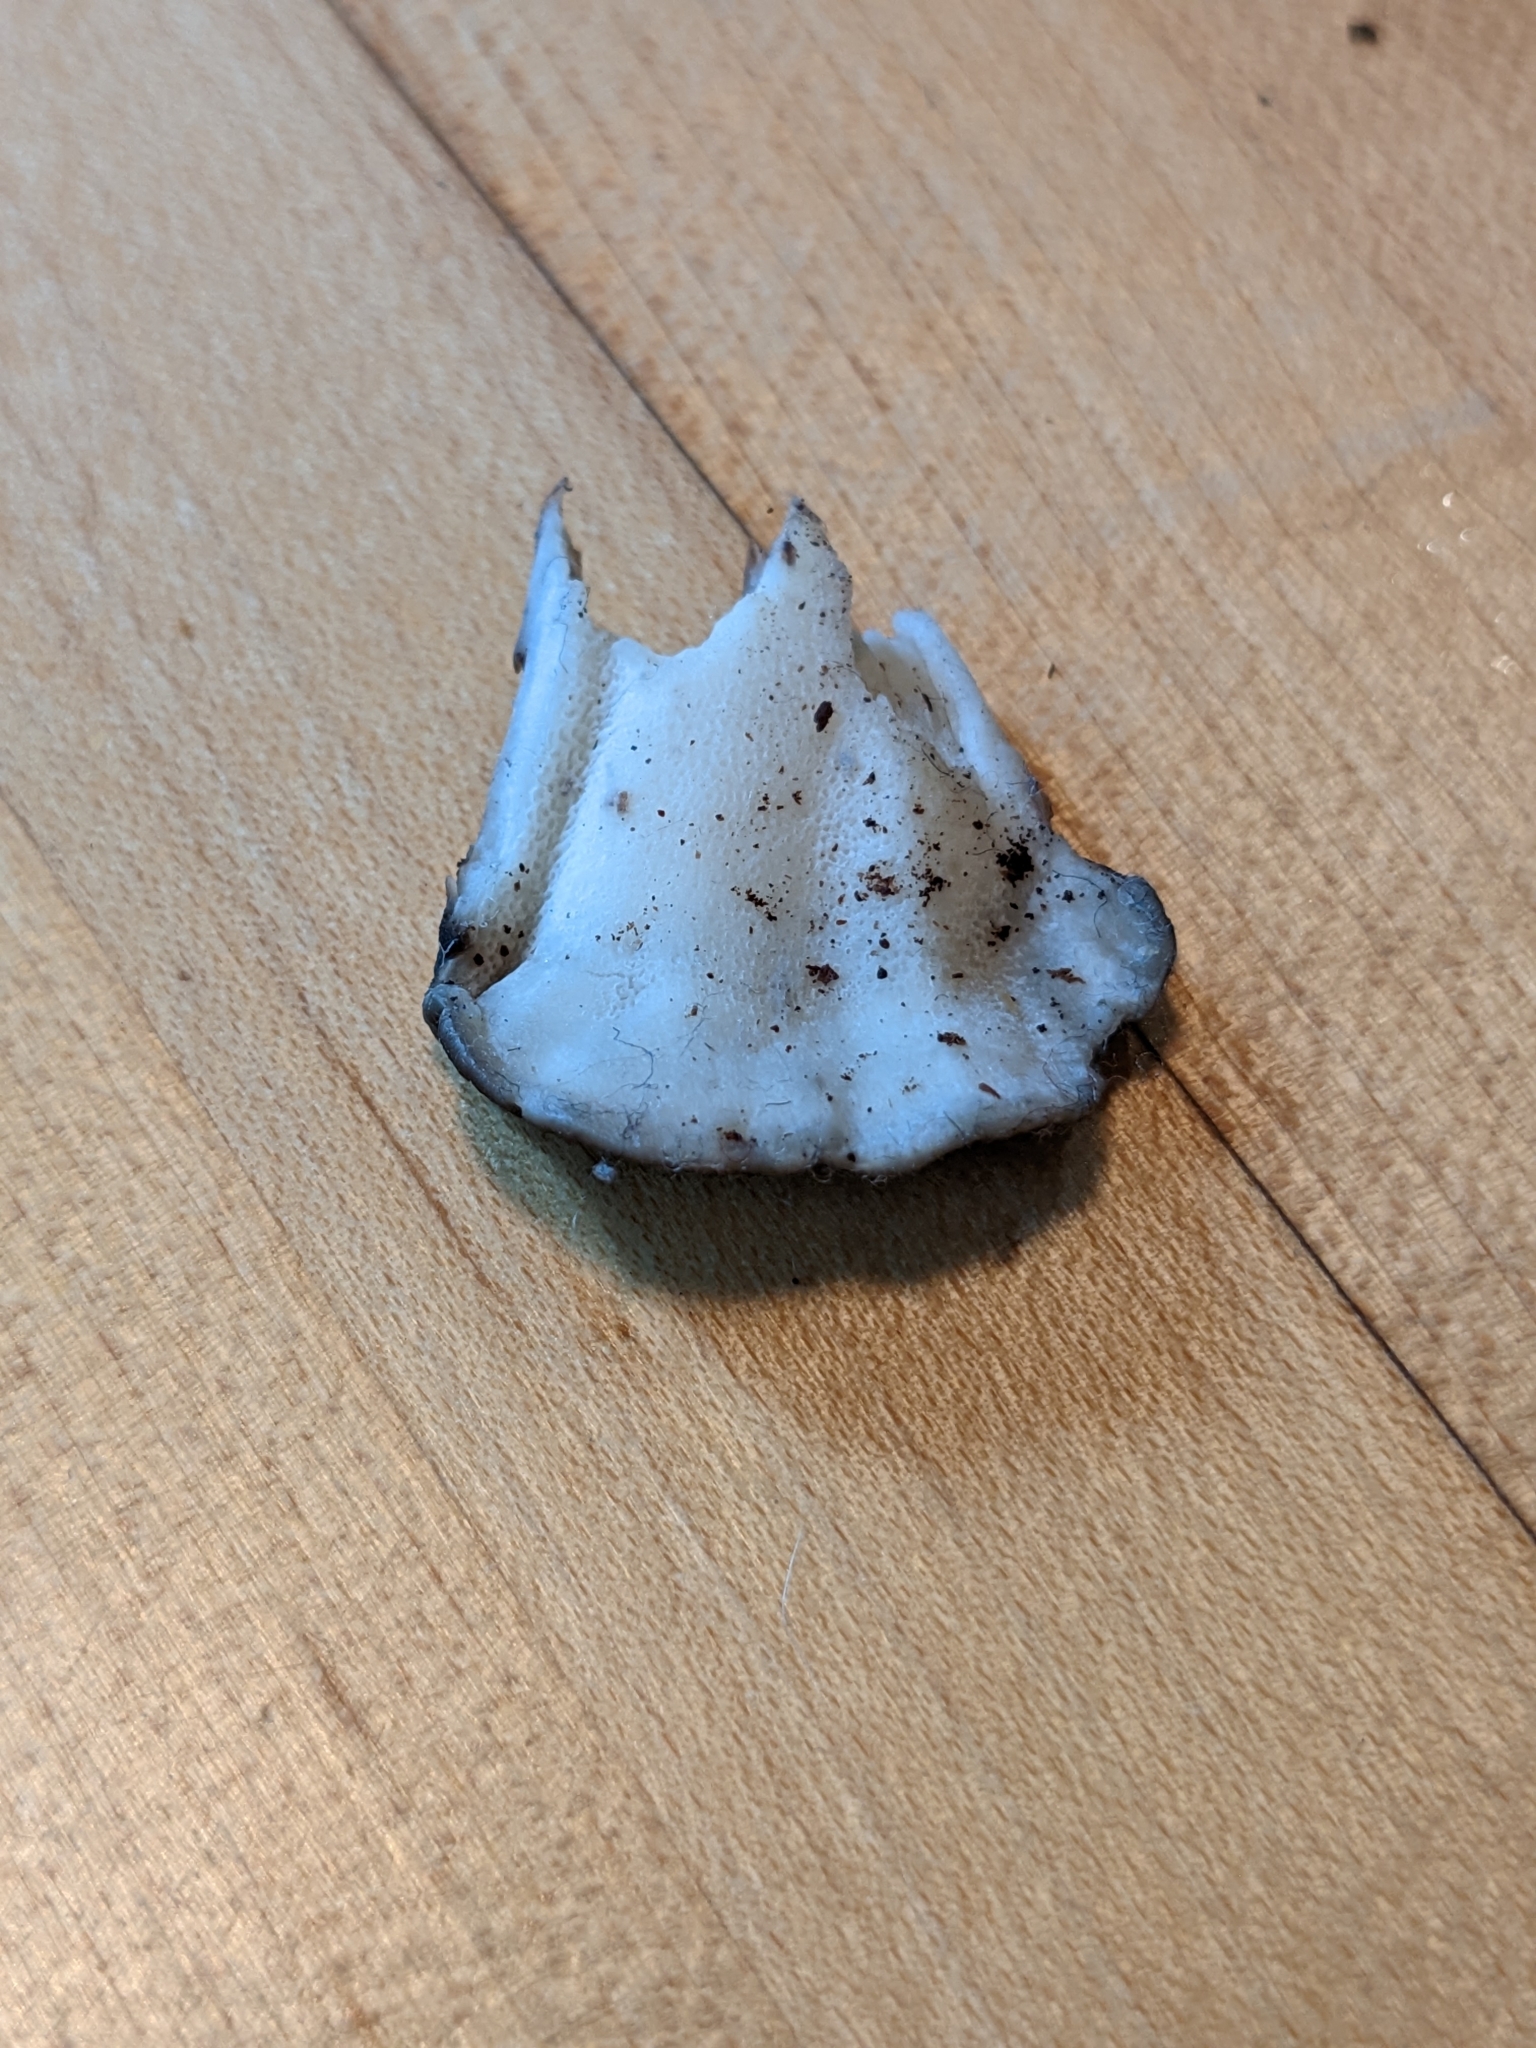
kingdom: Fungi
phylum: Basidiomycota
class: Agaricomycetes
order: Polyporales
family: Grifolaceae
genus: Grifola
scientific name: Grifola frondosa
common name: Hen of the woods
